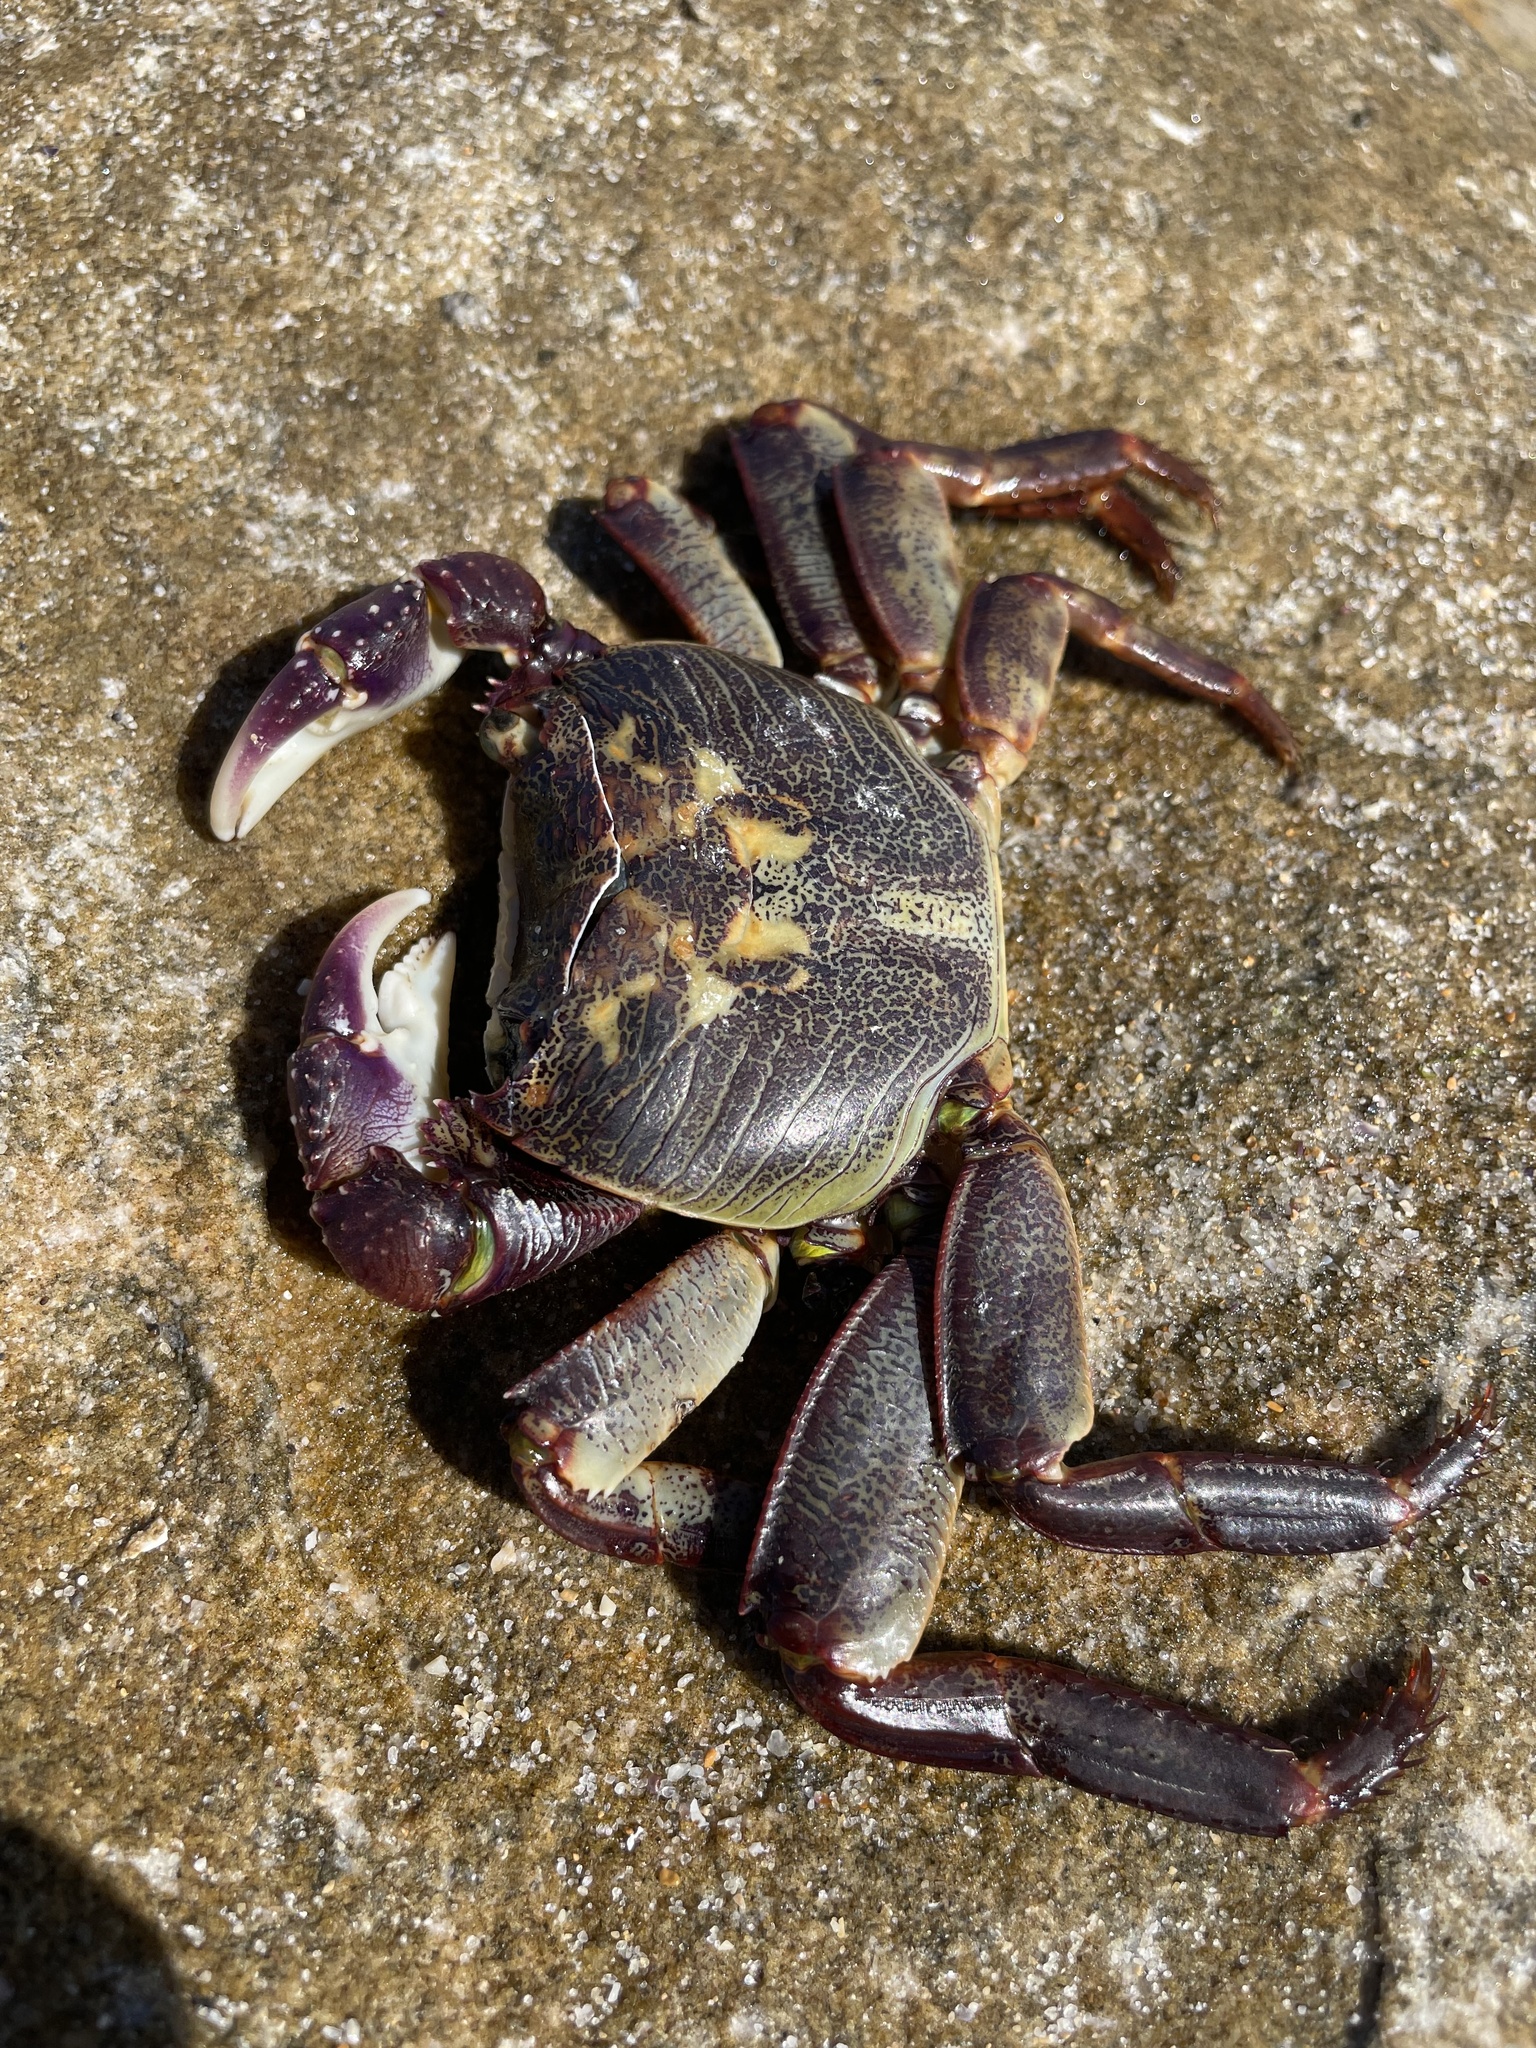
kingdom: Animalia
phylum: Arthropoda
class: Malacostraca
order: Decapoda
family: Grapsidae
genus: Leptograpsus
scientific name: Leptograpsus variegatus
